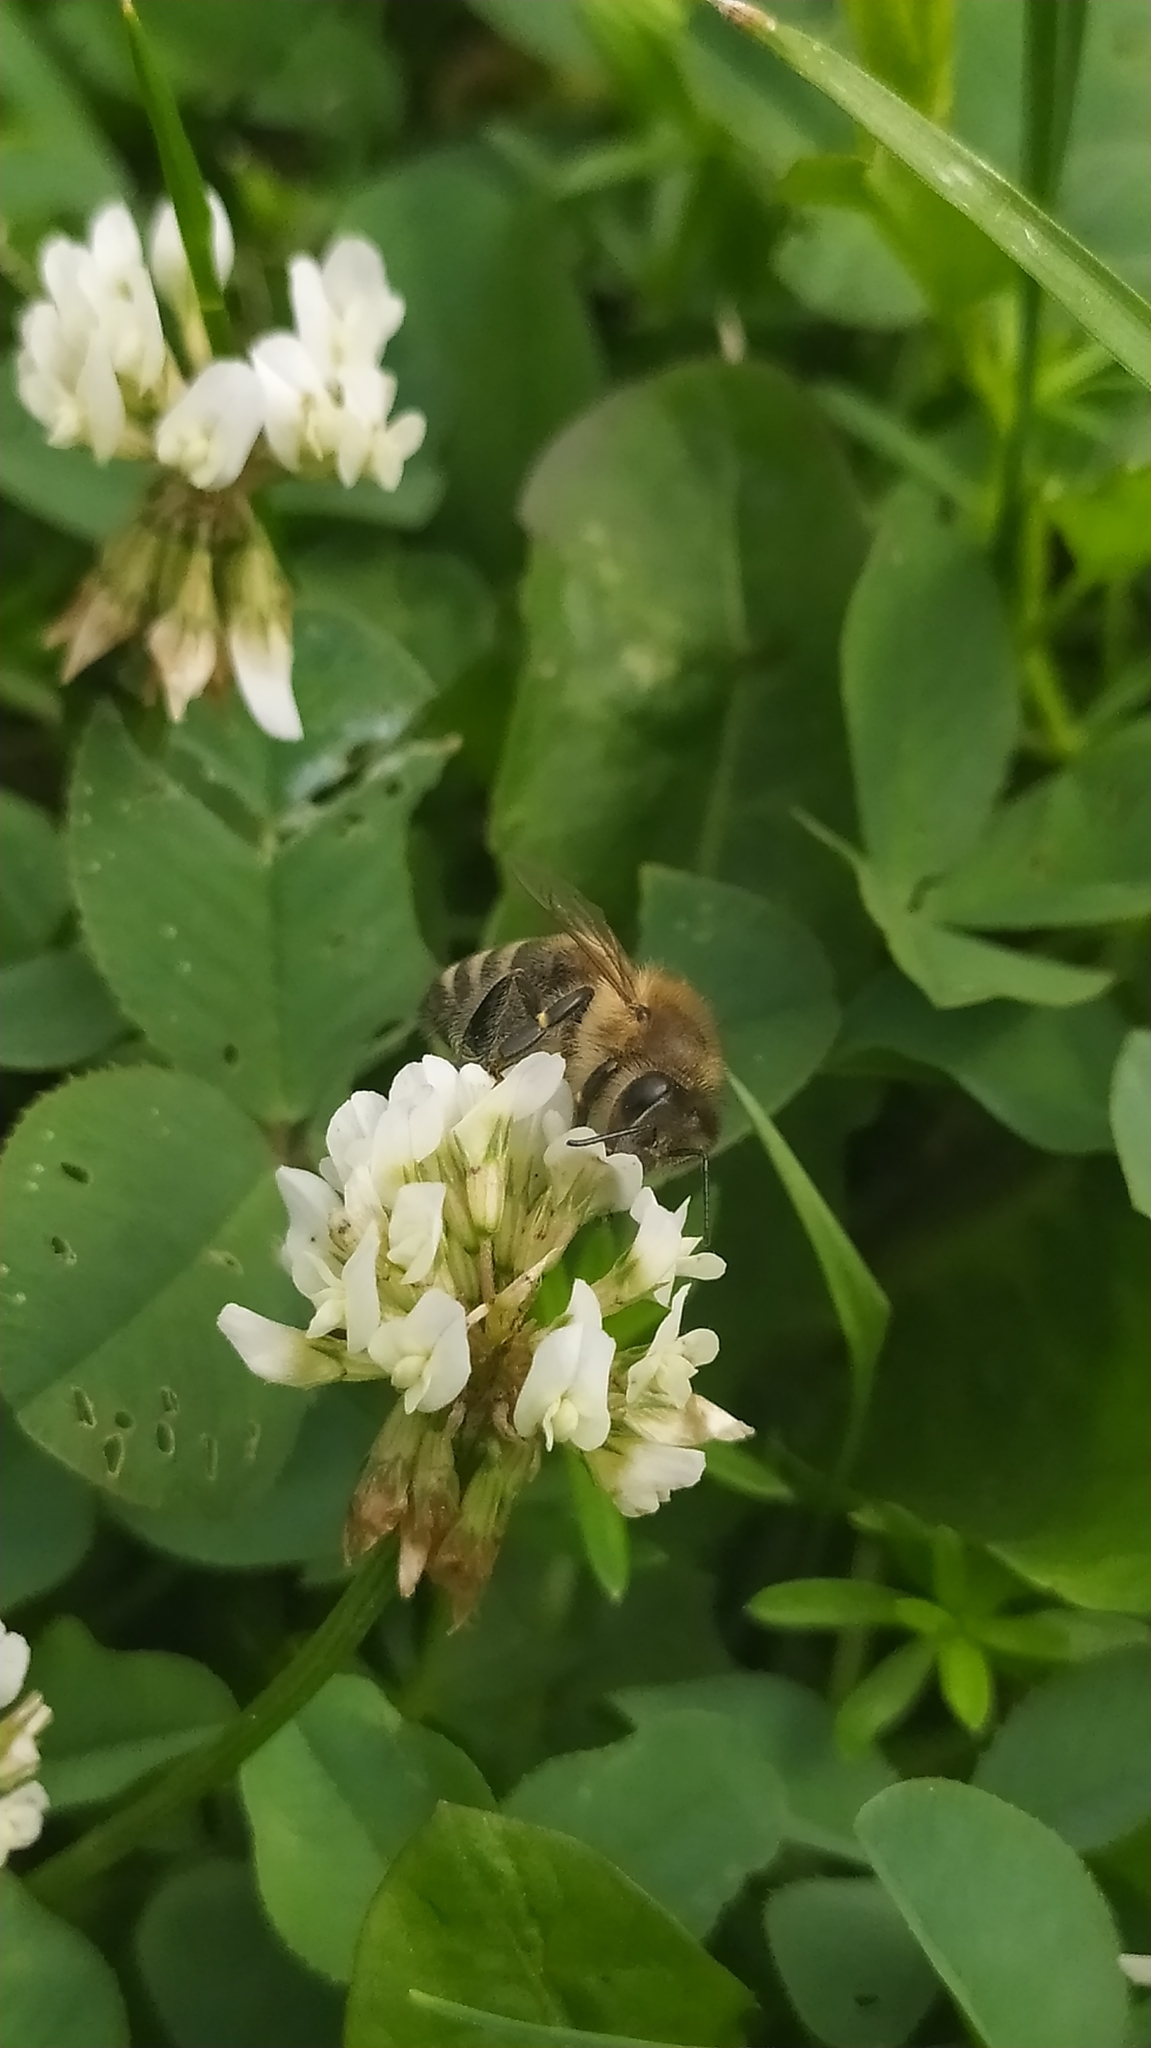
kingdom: Animalia
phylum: Arthropoda
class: Insecta
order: Hymenoptera
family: Apidae
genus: Apis
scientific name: Apis mellifera
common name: Honey bee
